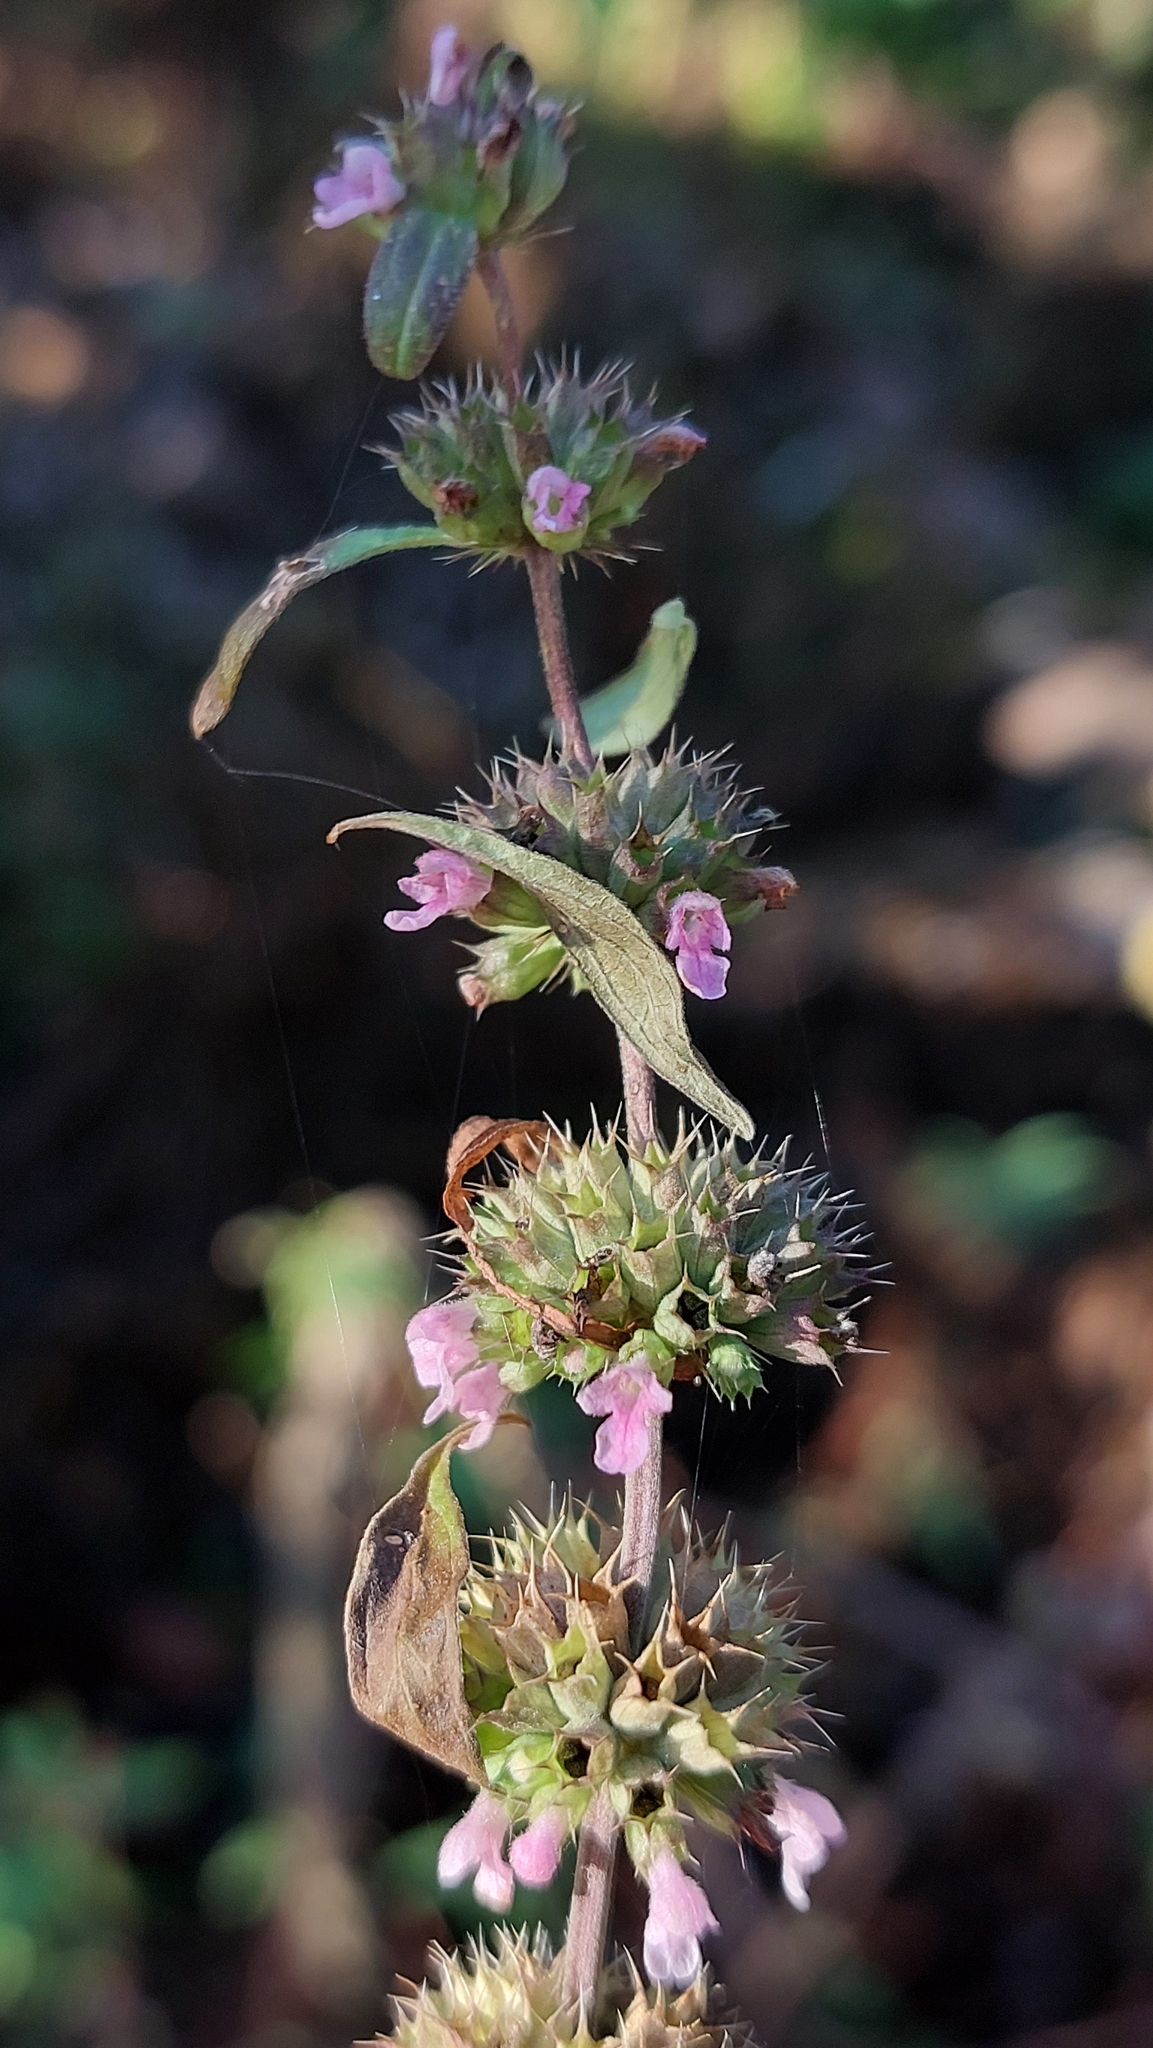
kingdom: Plantae
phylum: Tracheophyta
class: Magnoliopsida
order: Lamiales
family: Lamiaceae
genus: Chaiturus
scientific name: Chaiturus marrubiastrum
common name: Lion's tail
